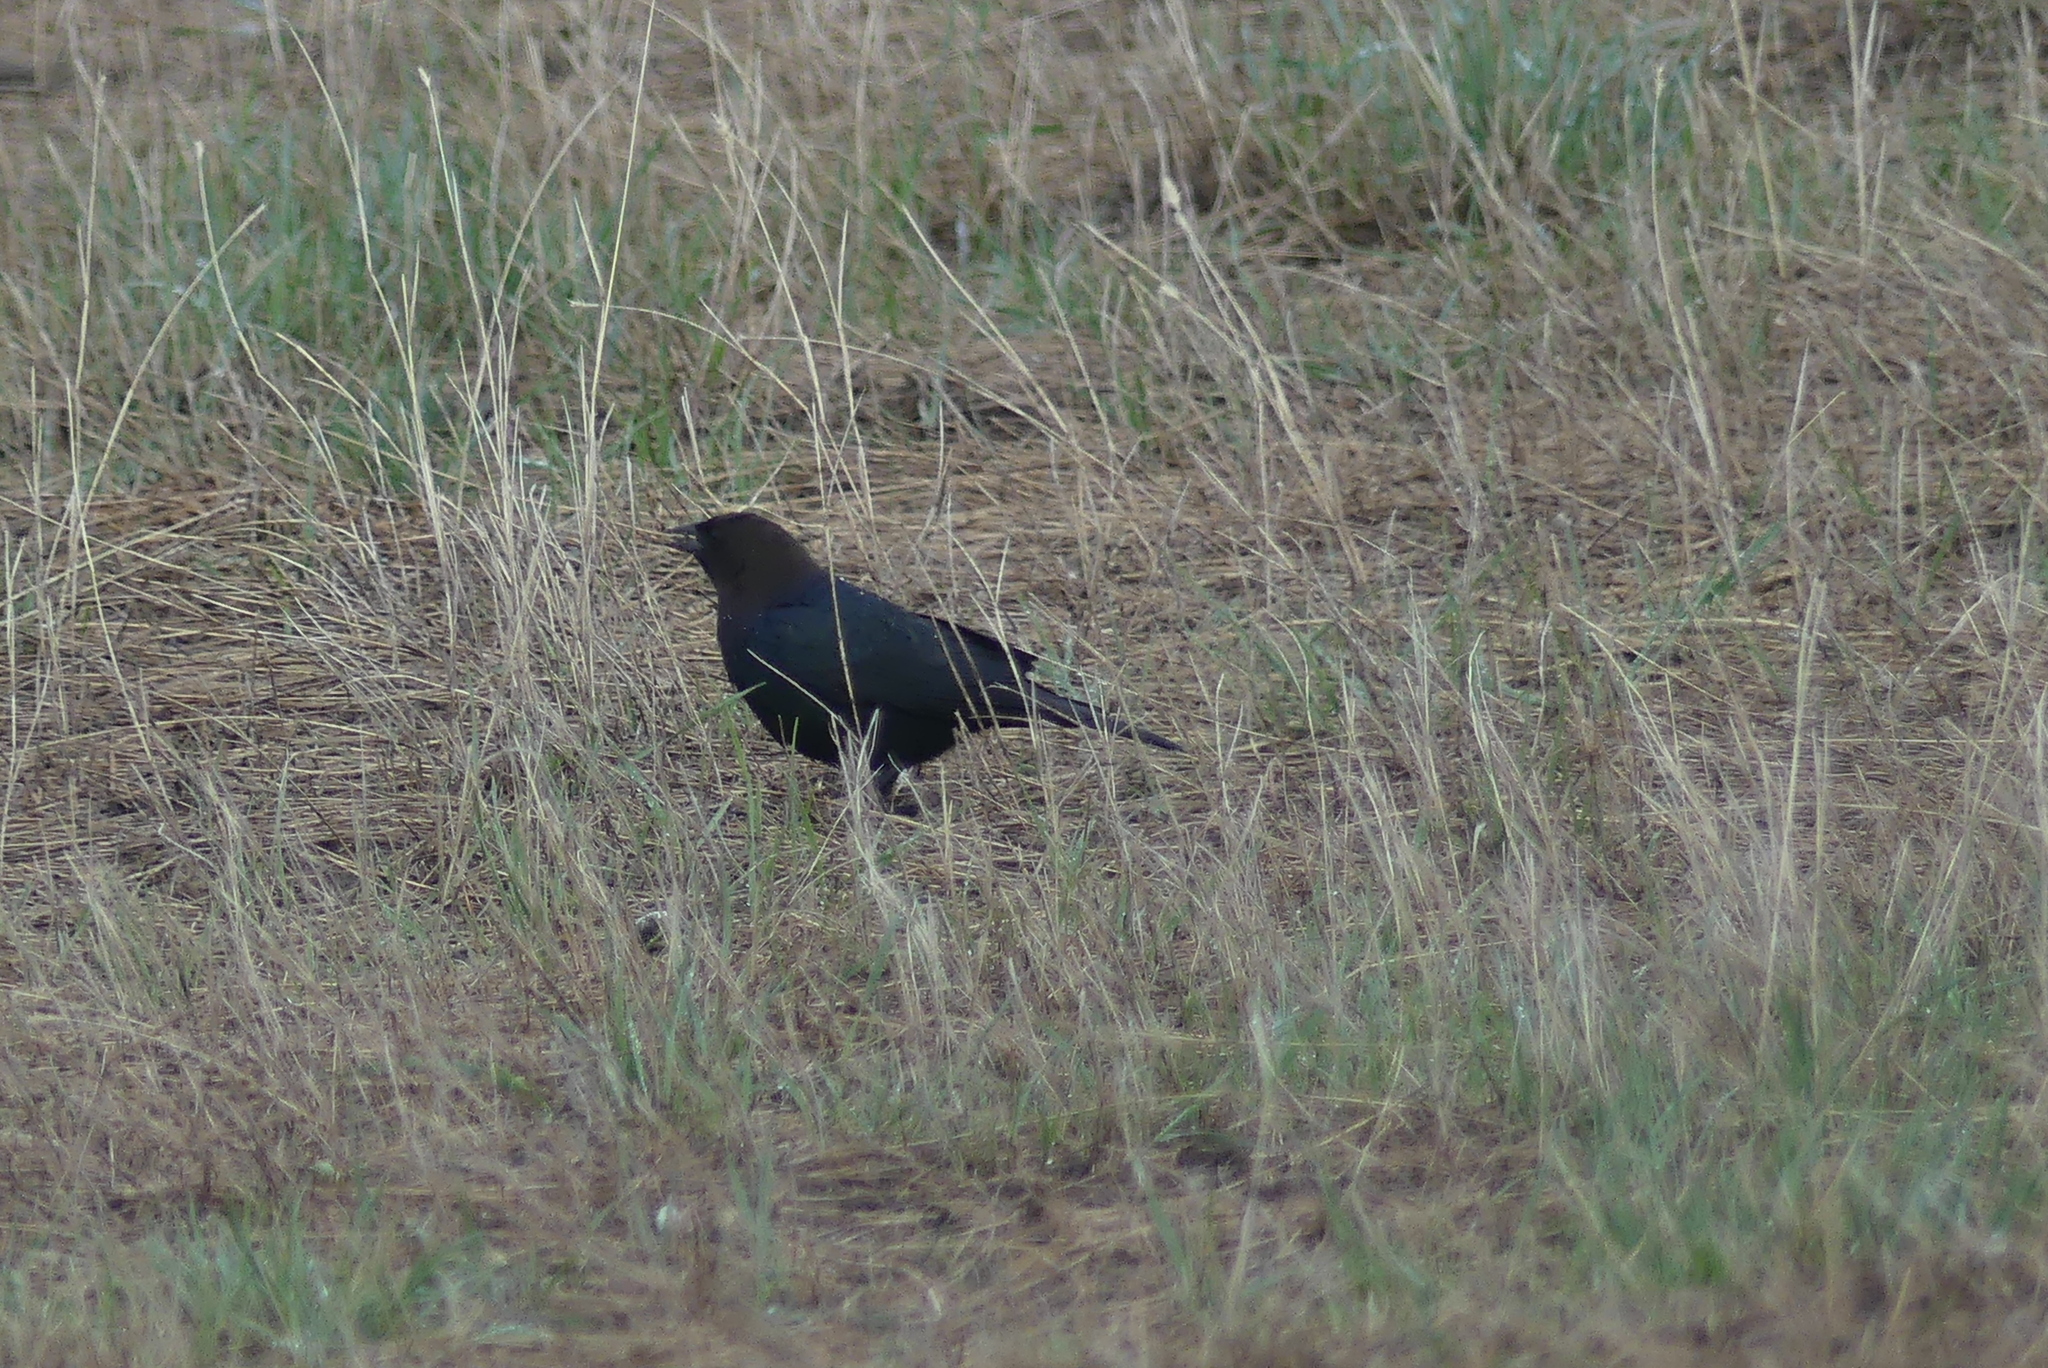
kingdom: Animalia
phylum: Chordata
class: Aves
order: Passeriformes
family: Icteridae
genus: Molothrus
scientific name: Molothrus ater
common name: Brown-headed cowbird
